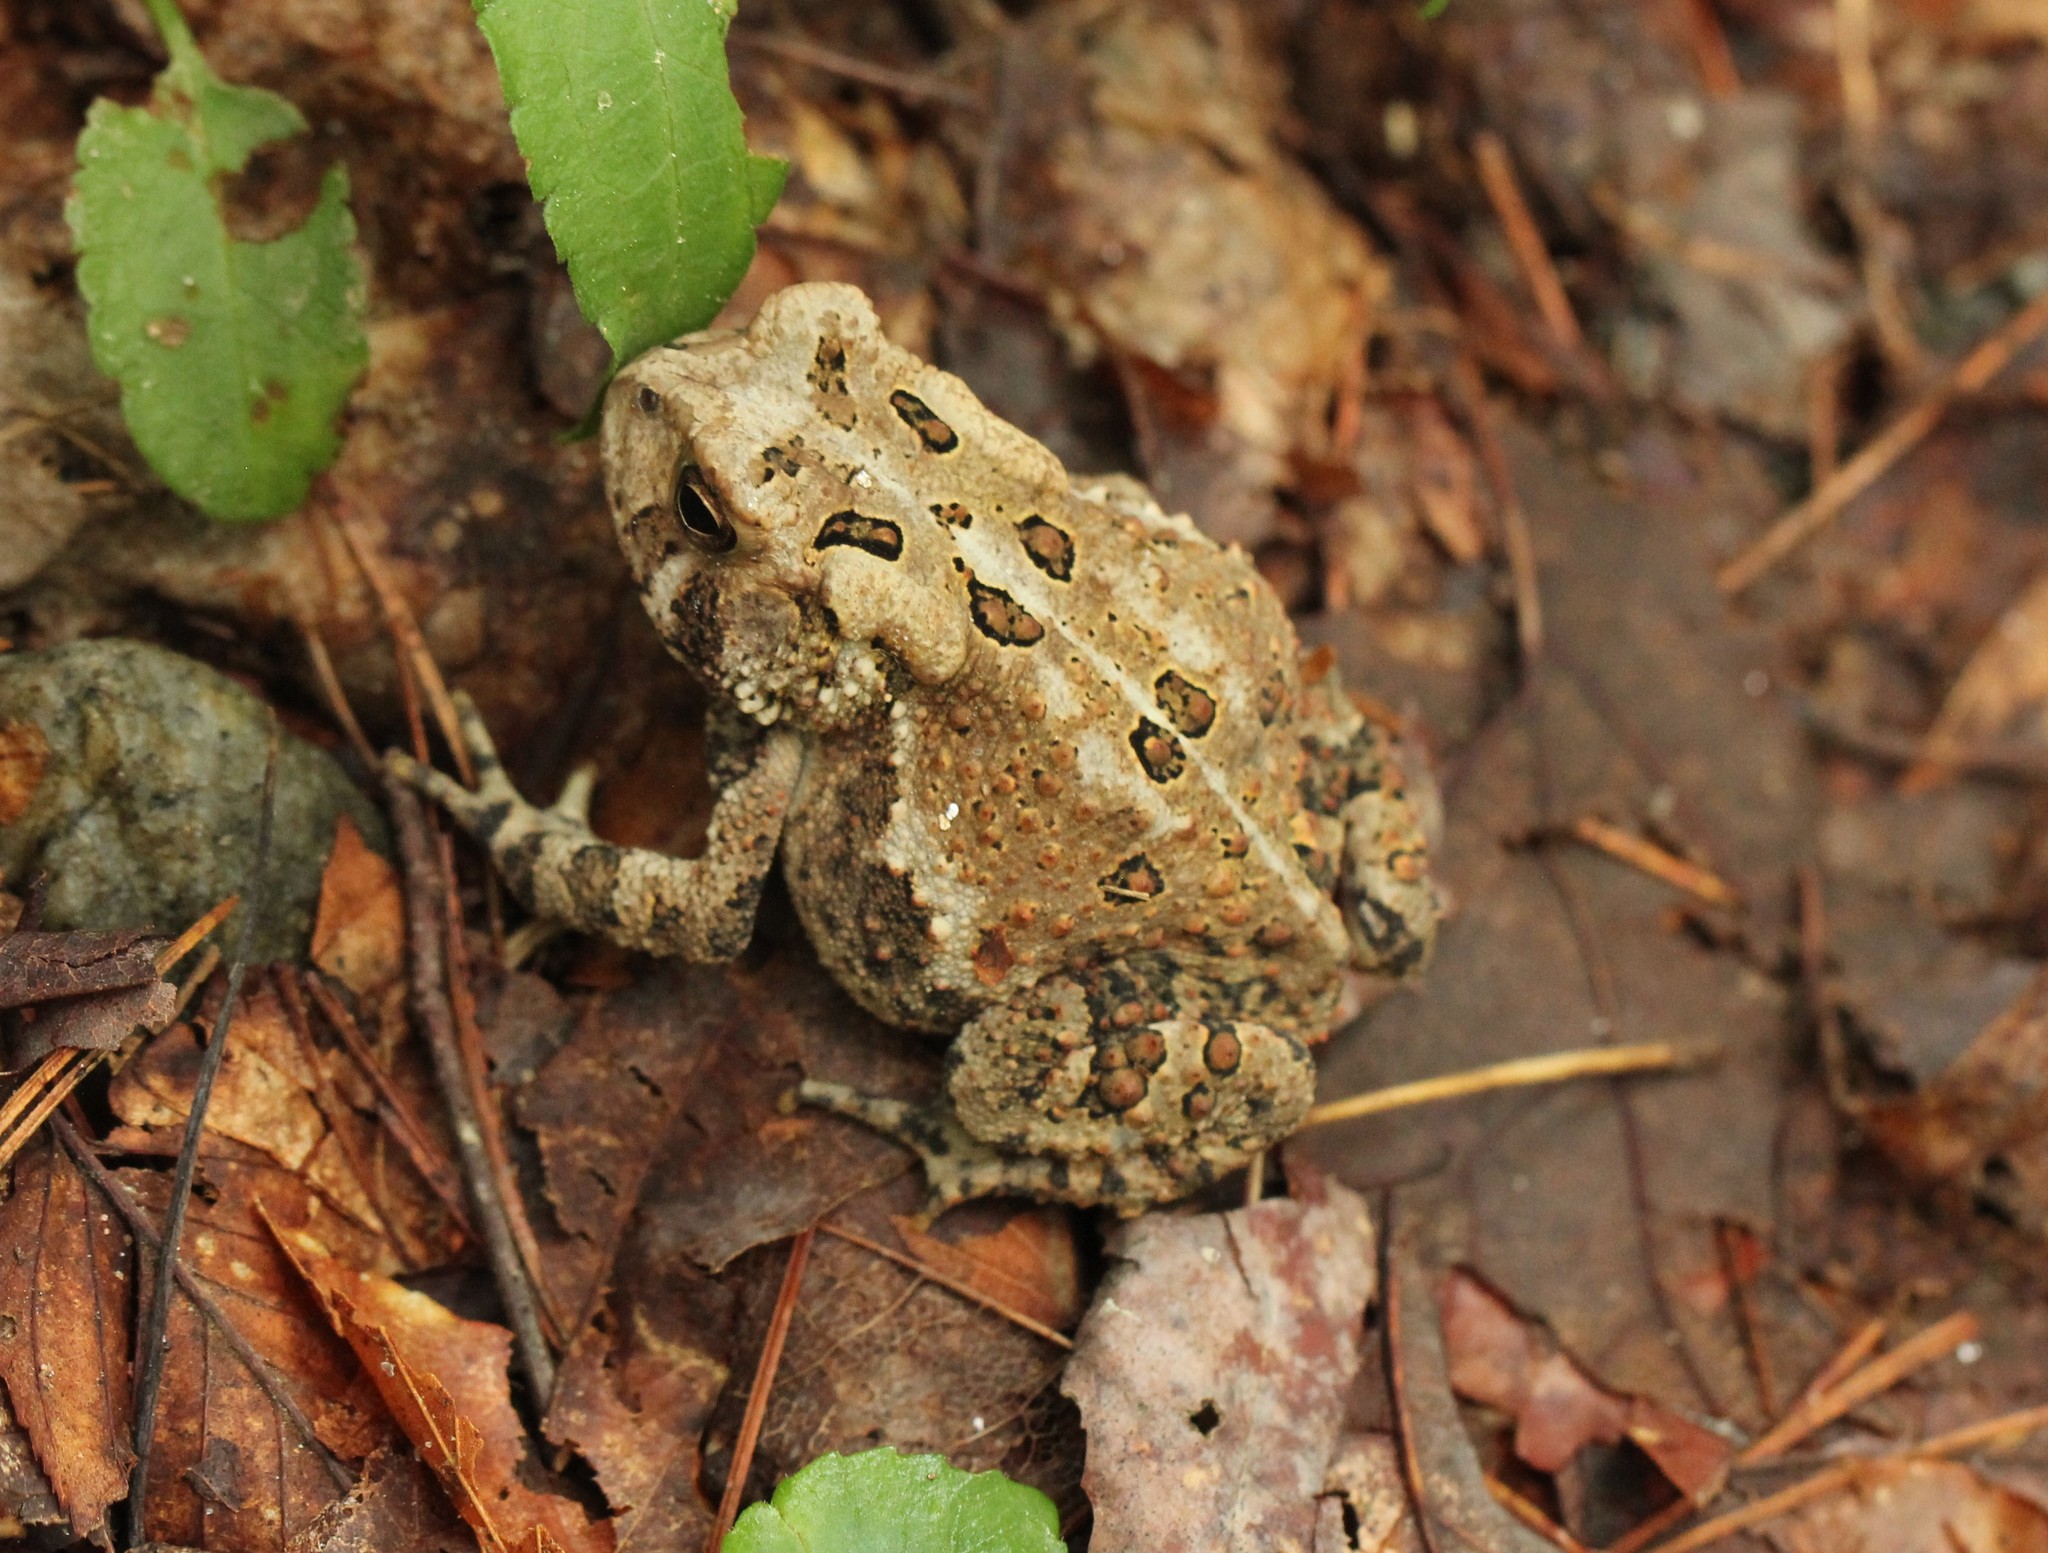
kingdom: Animalia
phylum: Chordata
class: Amphibia
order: Anura
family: Bufonidae
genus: Anaxyrus
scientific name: Anaxyrus americanus
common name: American toad
